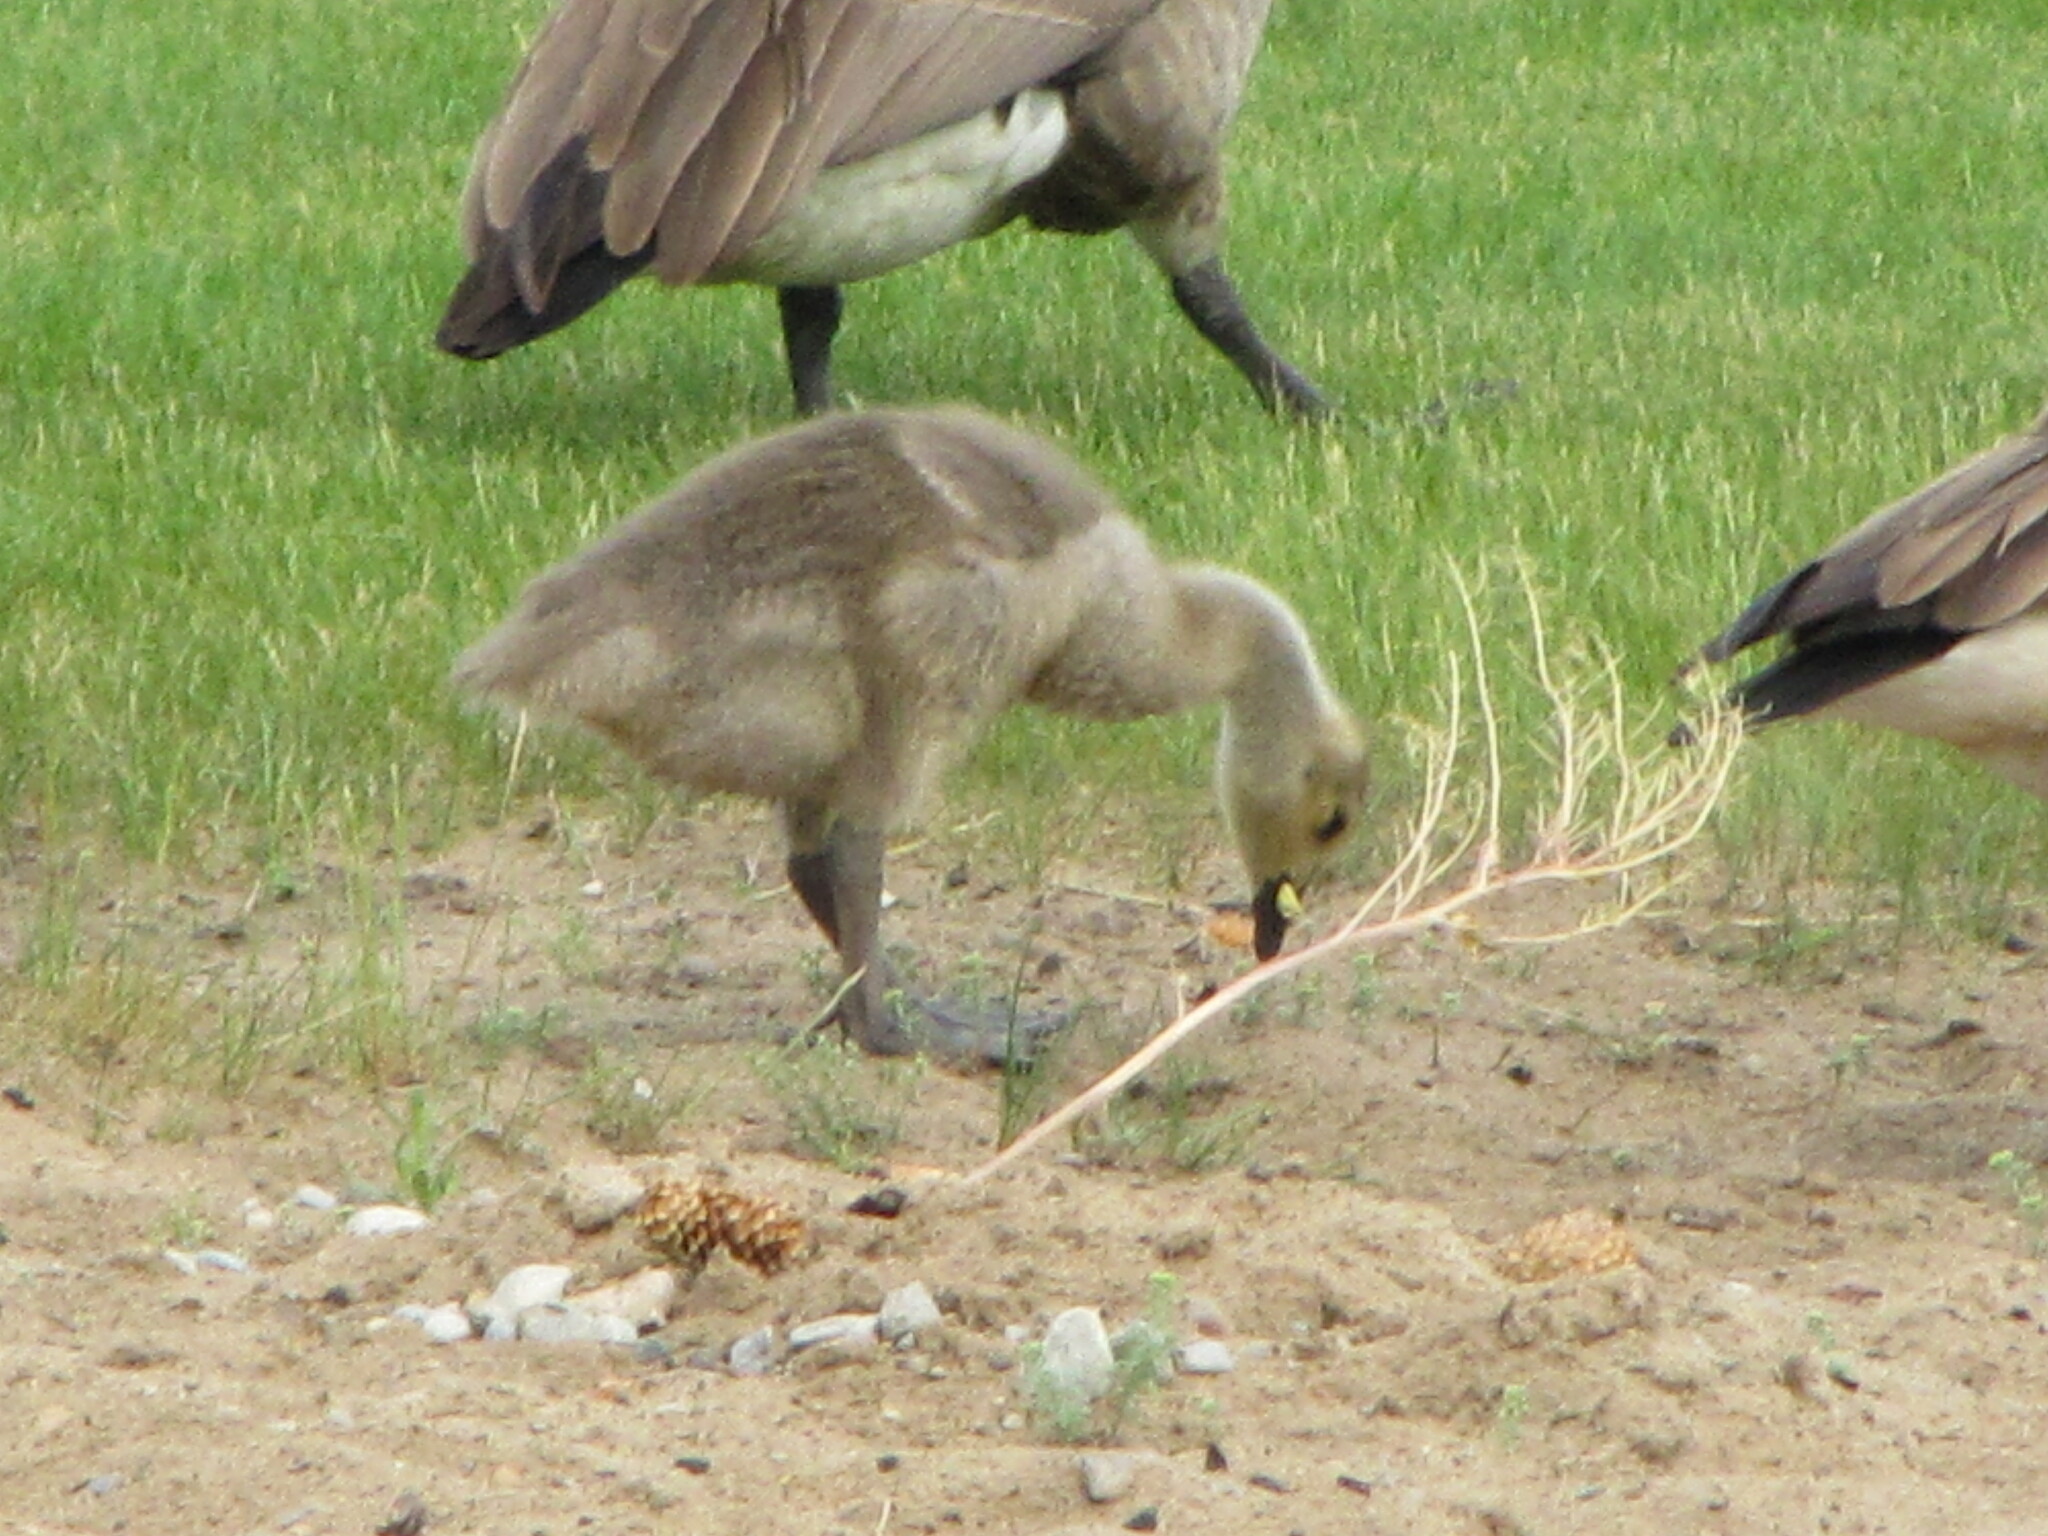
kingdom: Animalia
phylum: Chordata
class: Aves
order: Anseriformes
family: Anatidae
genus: Branta
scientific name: Branta canadensis
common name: Canada goose
